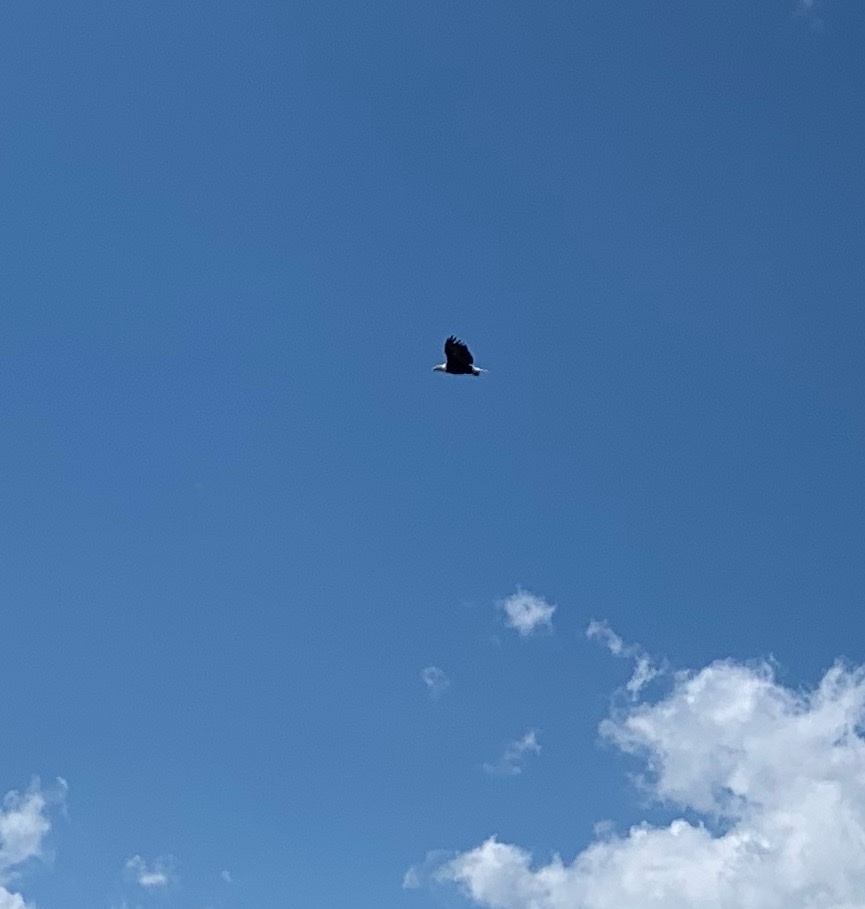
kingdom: Animalia
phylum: Chordata
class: Aves
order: Accipitriformes
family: Accipitridae
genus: Haliaeetus
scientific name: Haliaeetus leucocephalus
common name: Bald eagle
